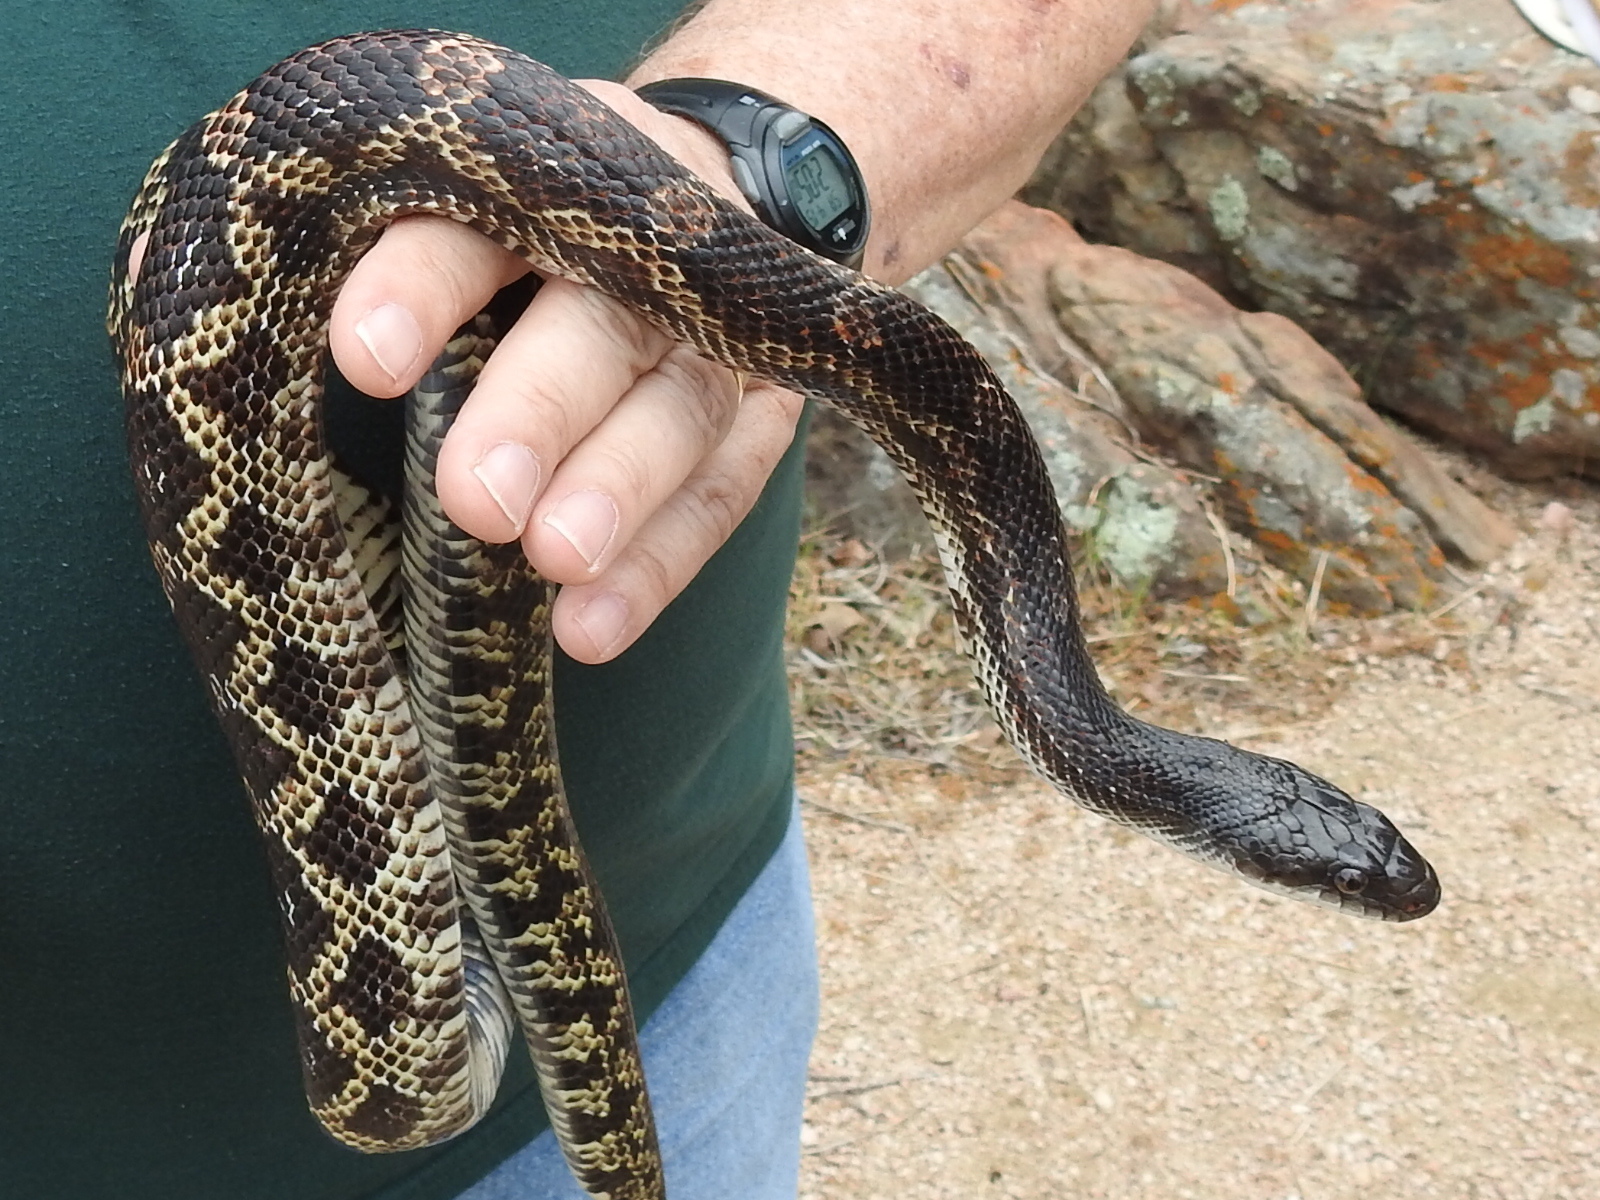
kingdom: Animalia
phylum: Chordata
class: Squamata
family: Colubridae
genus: Pantherophis
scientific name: Pantherophis obsoletus
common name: Black rat snake
